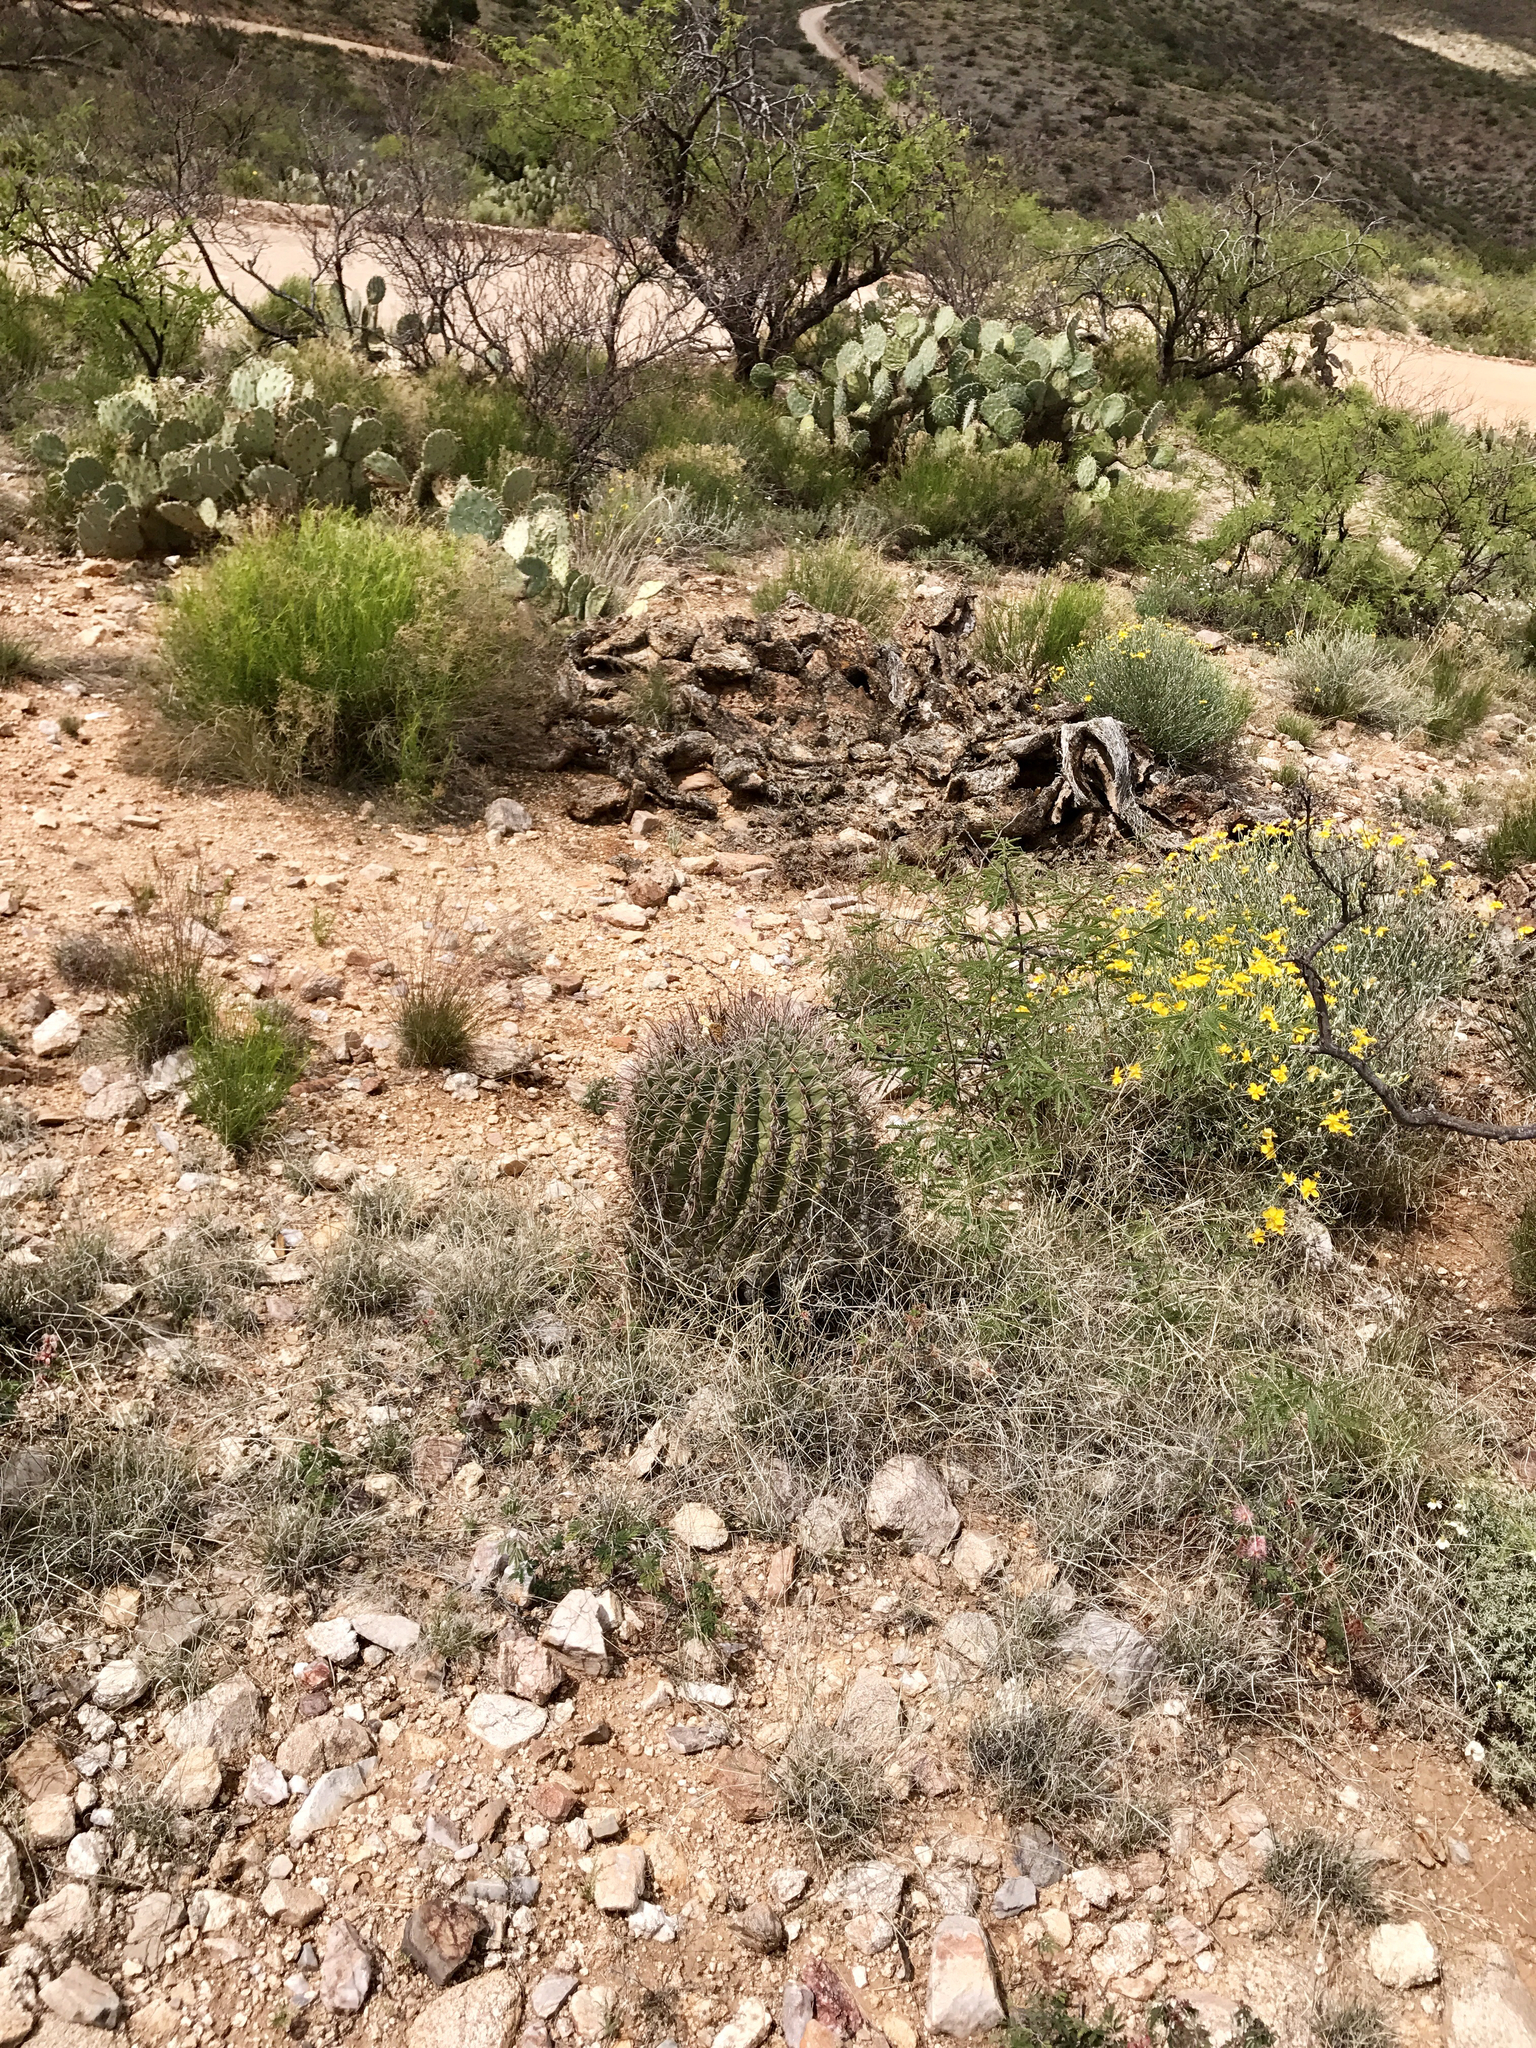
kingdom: Plantae
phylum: Tracheophyta
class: Magnoliopsida
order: Caryophyllales
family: Cactaceae
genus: Ferocactus
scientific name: Ferocactus wislizeni
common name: Candy barrel cactus
